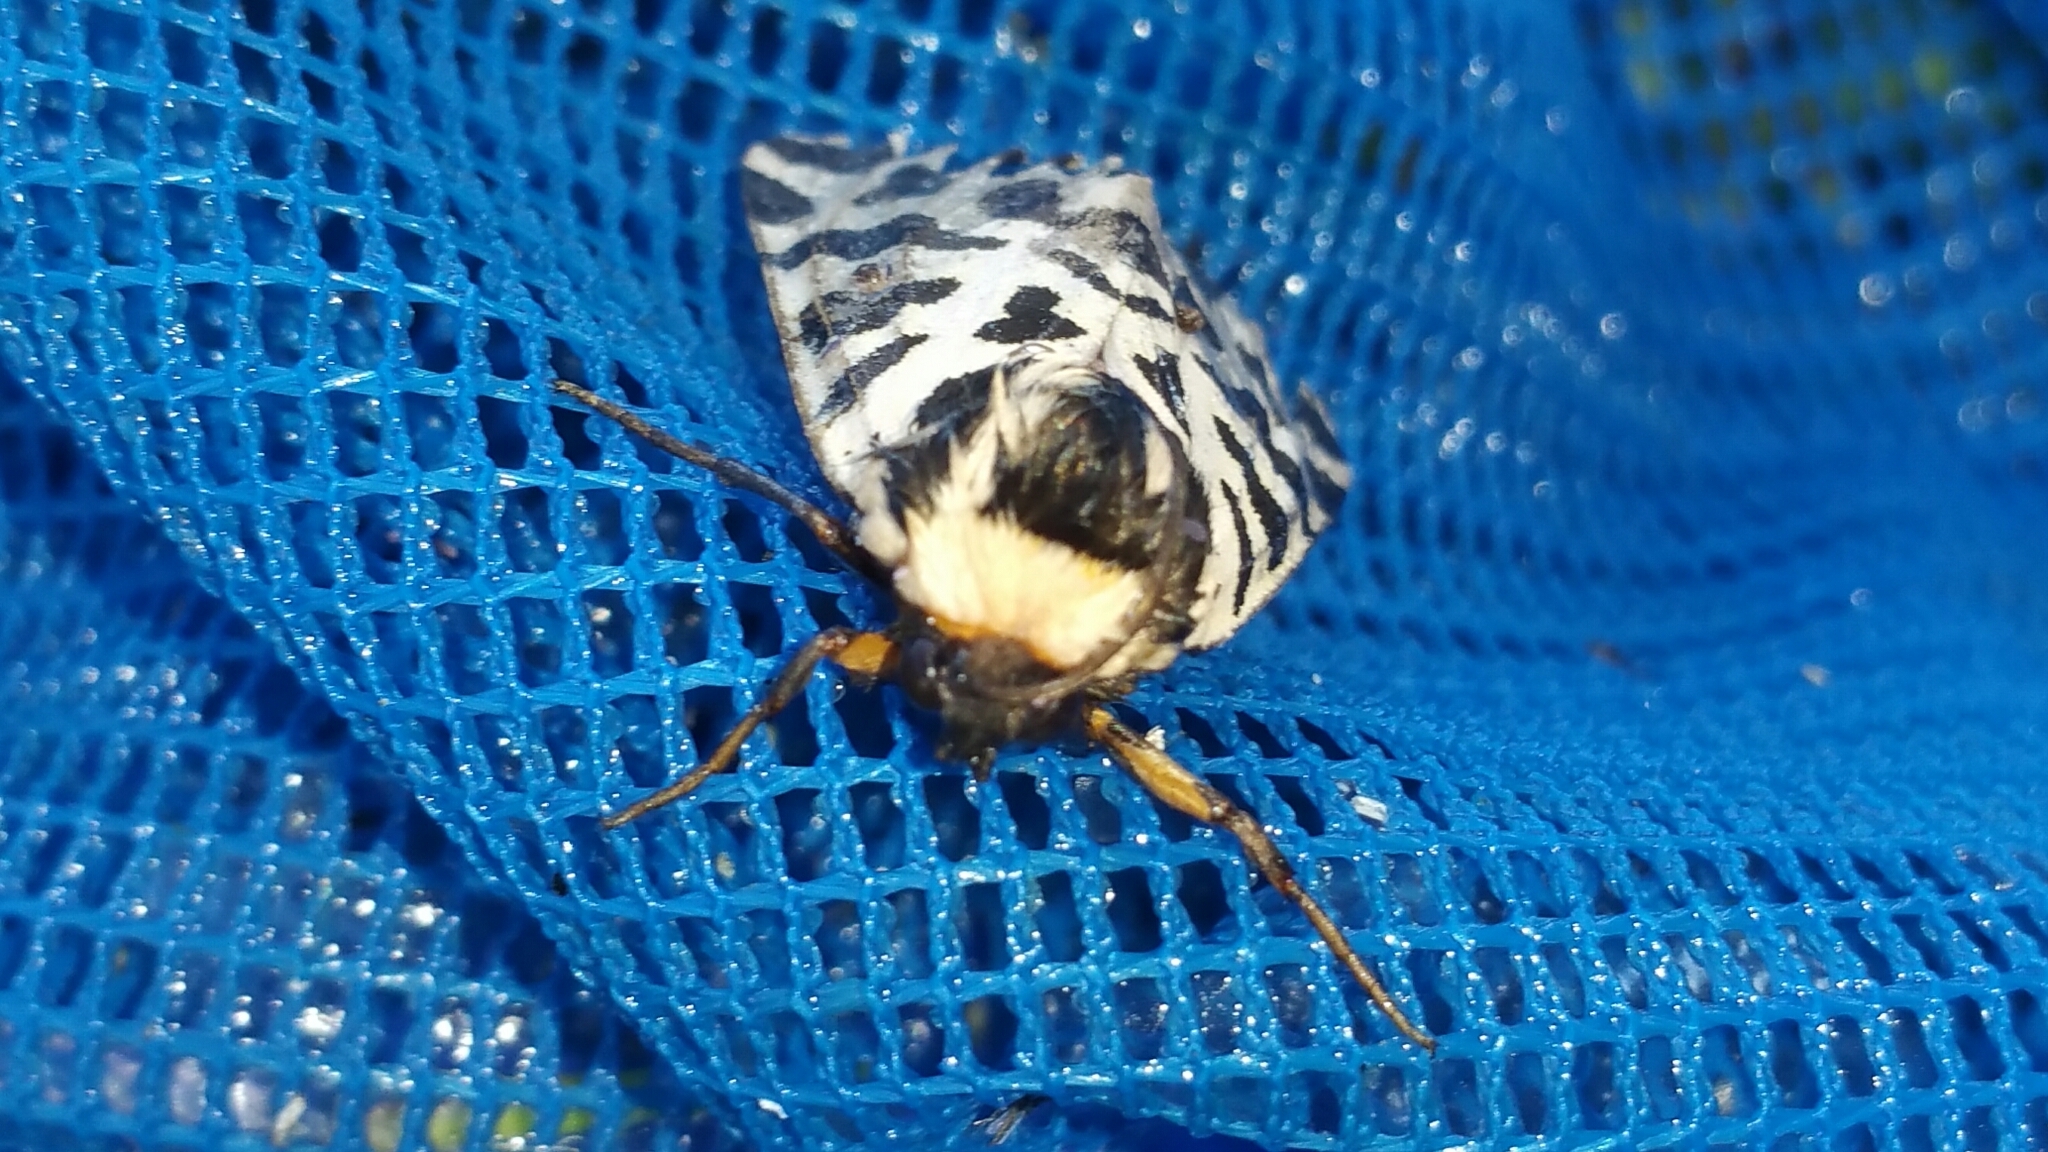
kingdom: Animalia
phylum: Arthropoda
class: Insecta
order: Lepidoptera
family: Erebidae
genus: Cymbalophora
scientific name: Cymbalophora pudica
